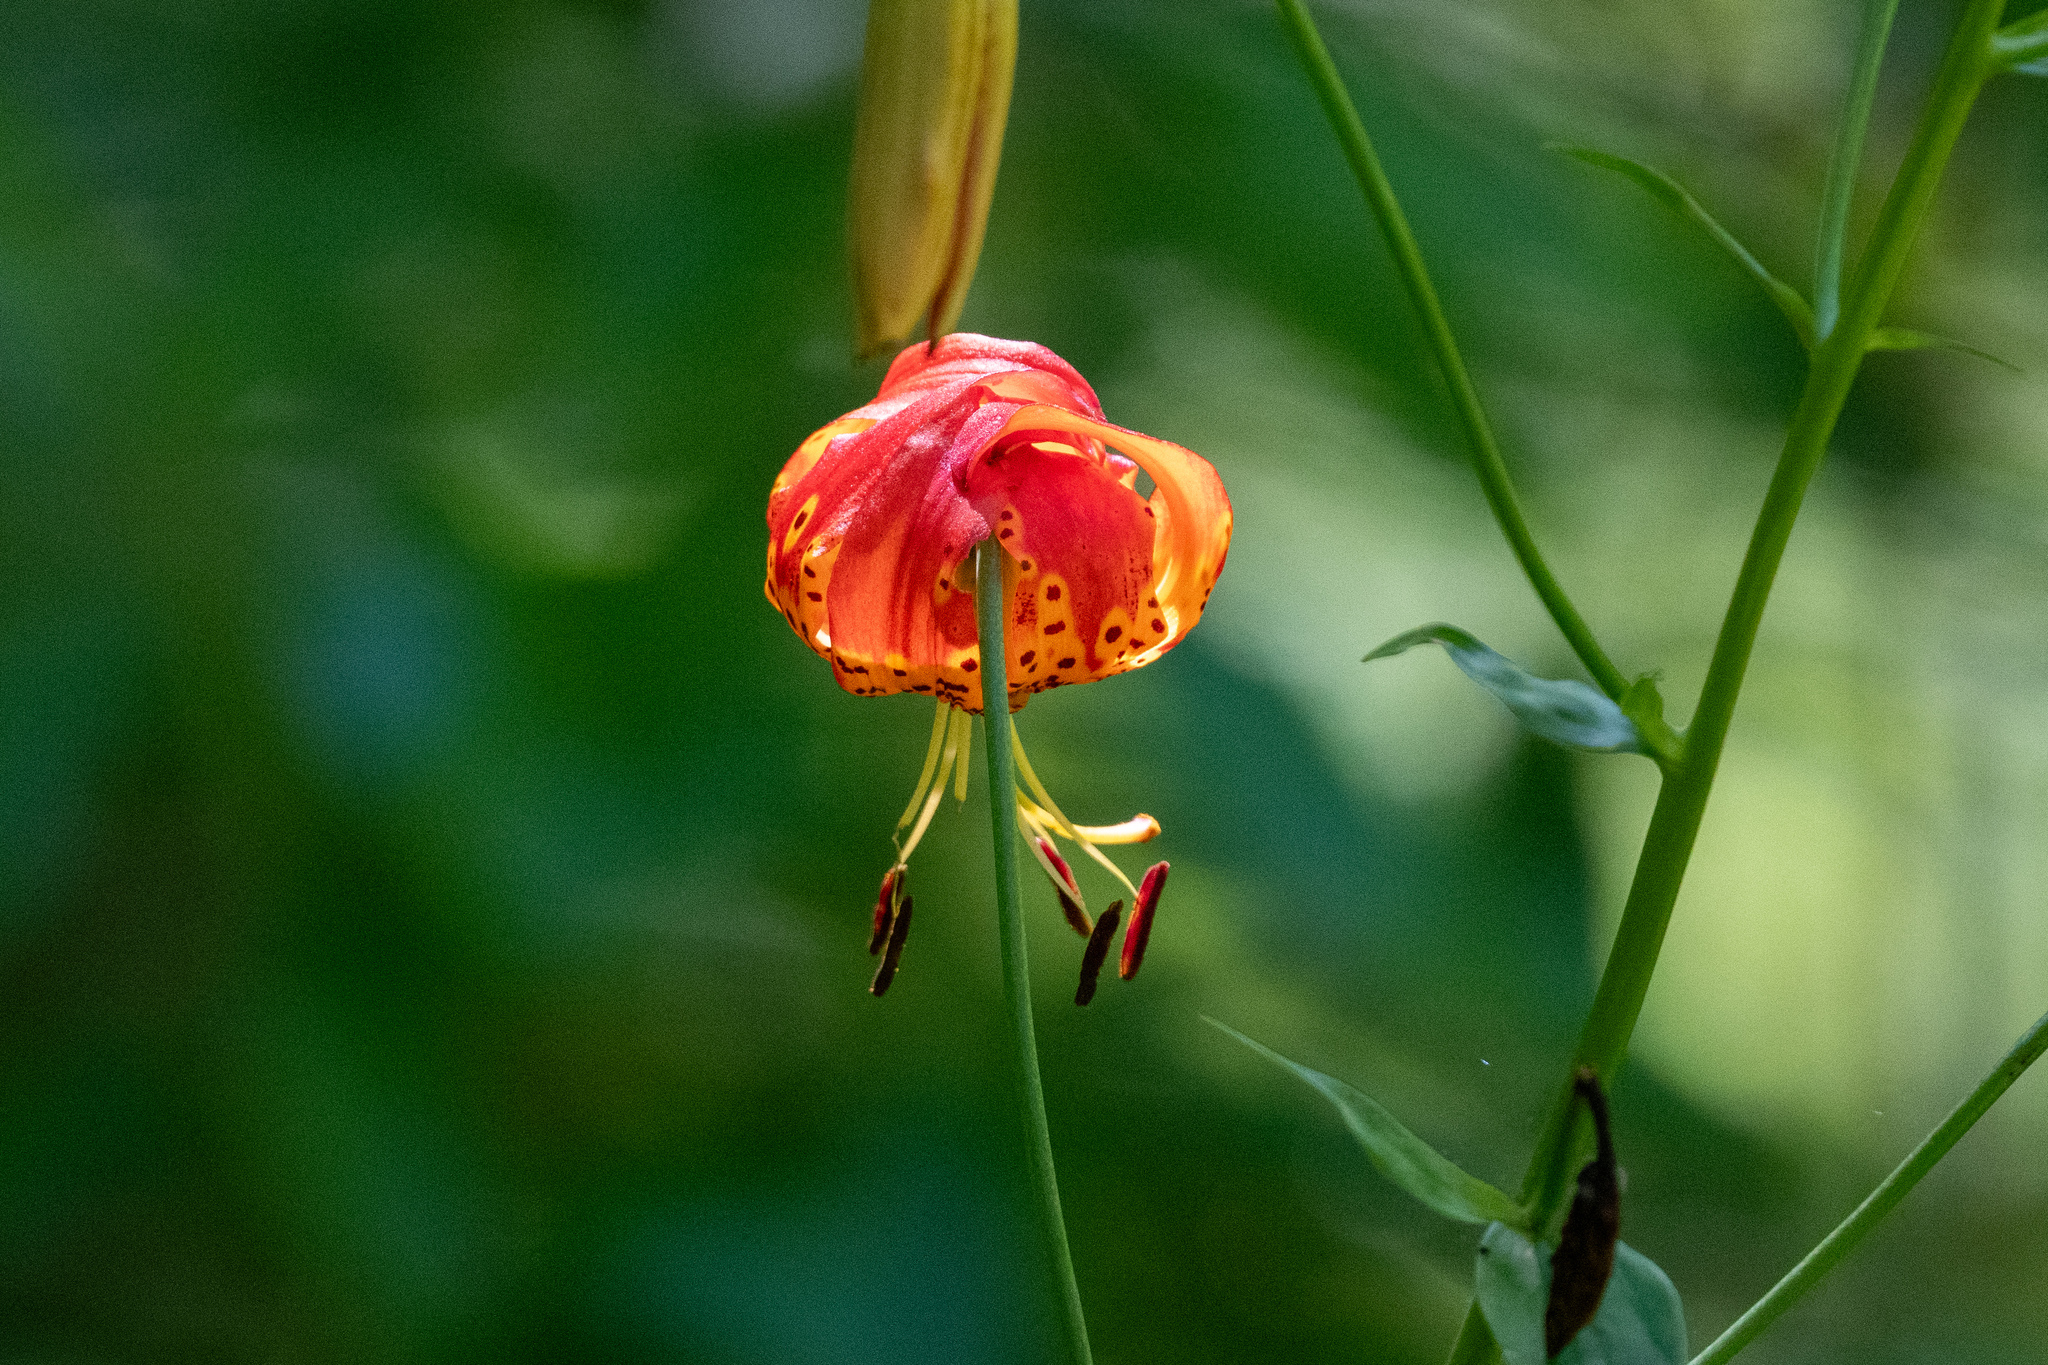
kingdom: Plantae
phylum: Tracheophyta
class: Liliopsida
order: Liliales
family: Liliaceae
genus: Lilium
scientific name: Lilium pardalinum
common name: Panther lily
